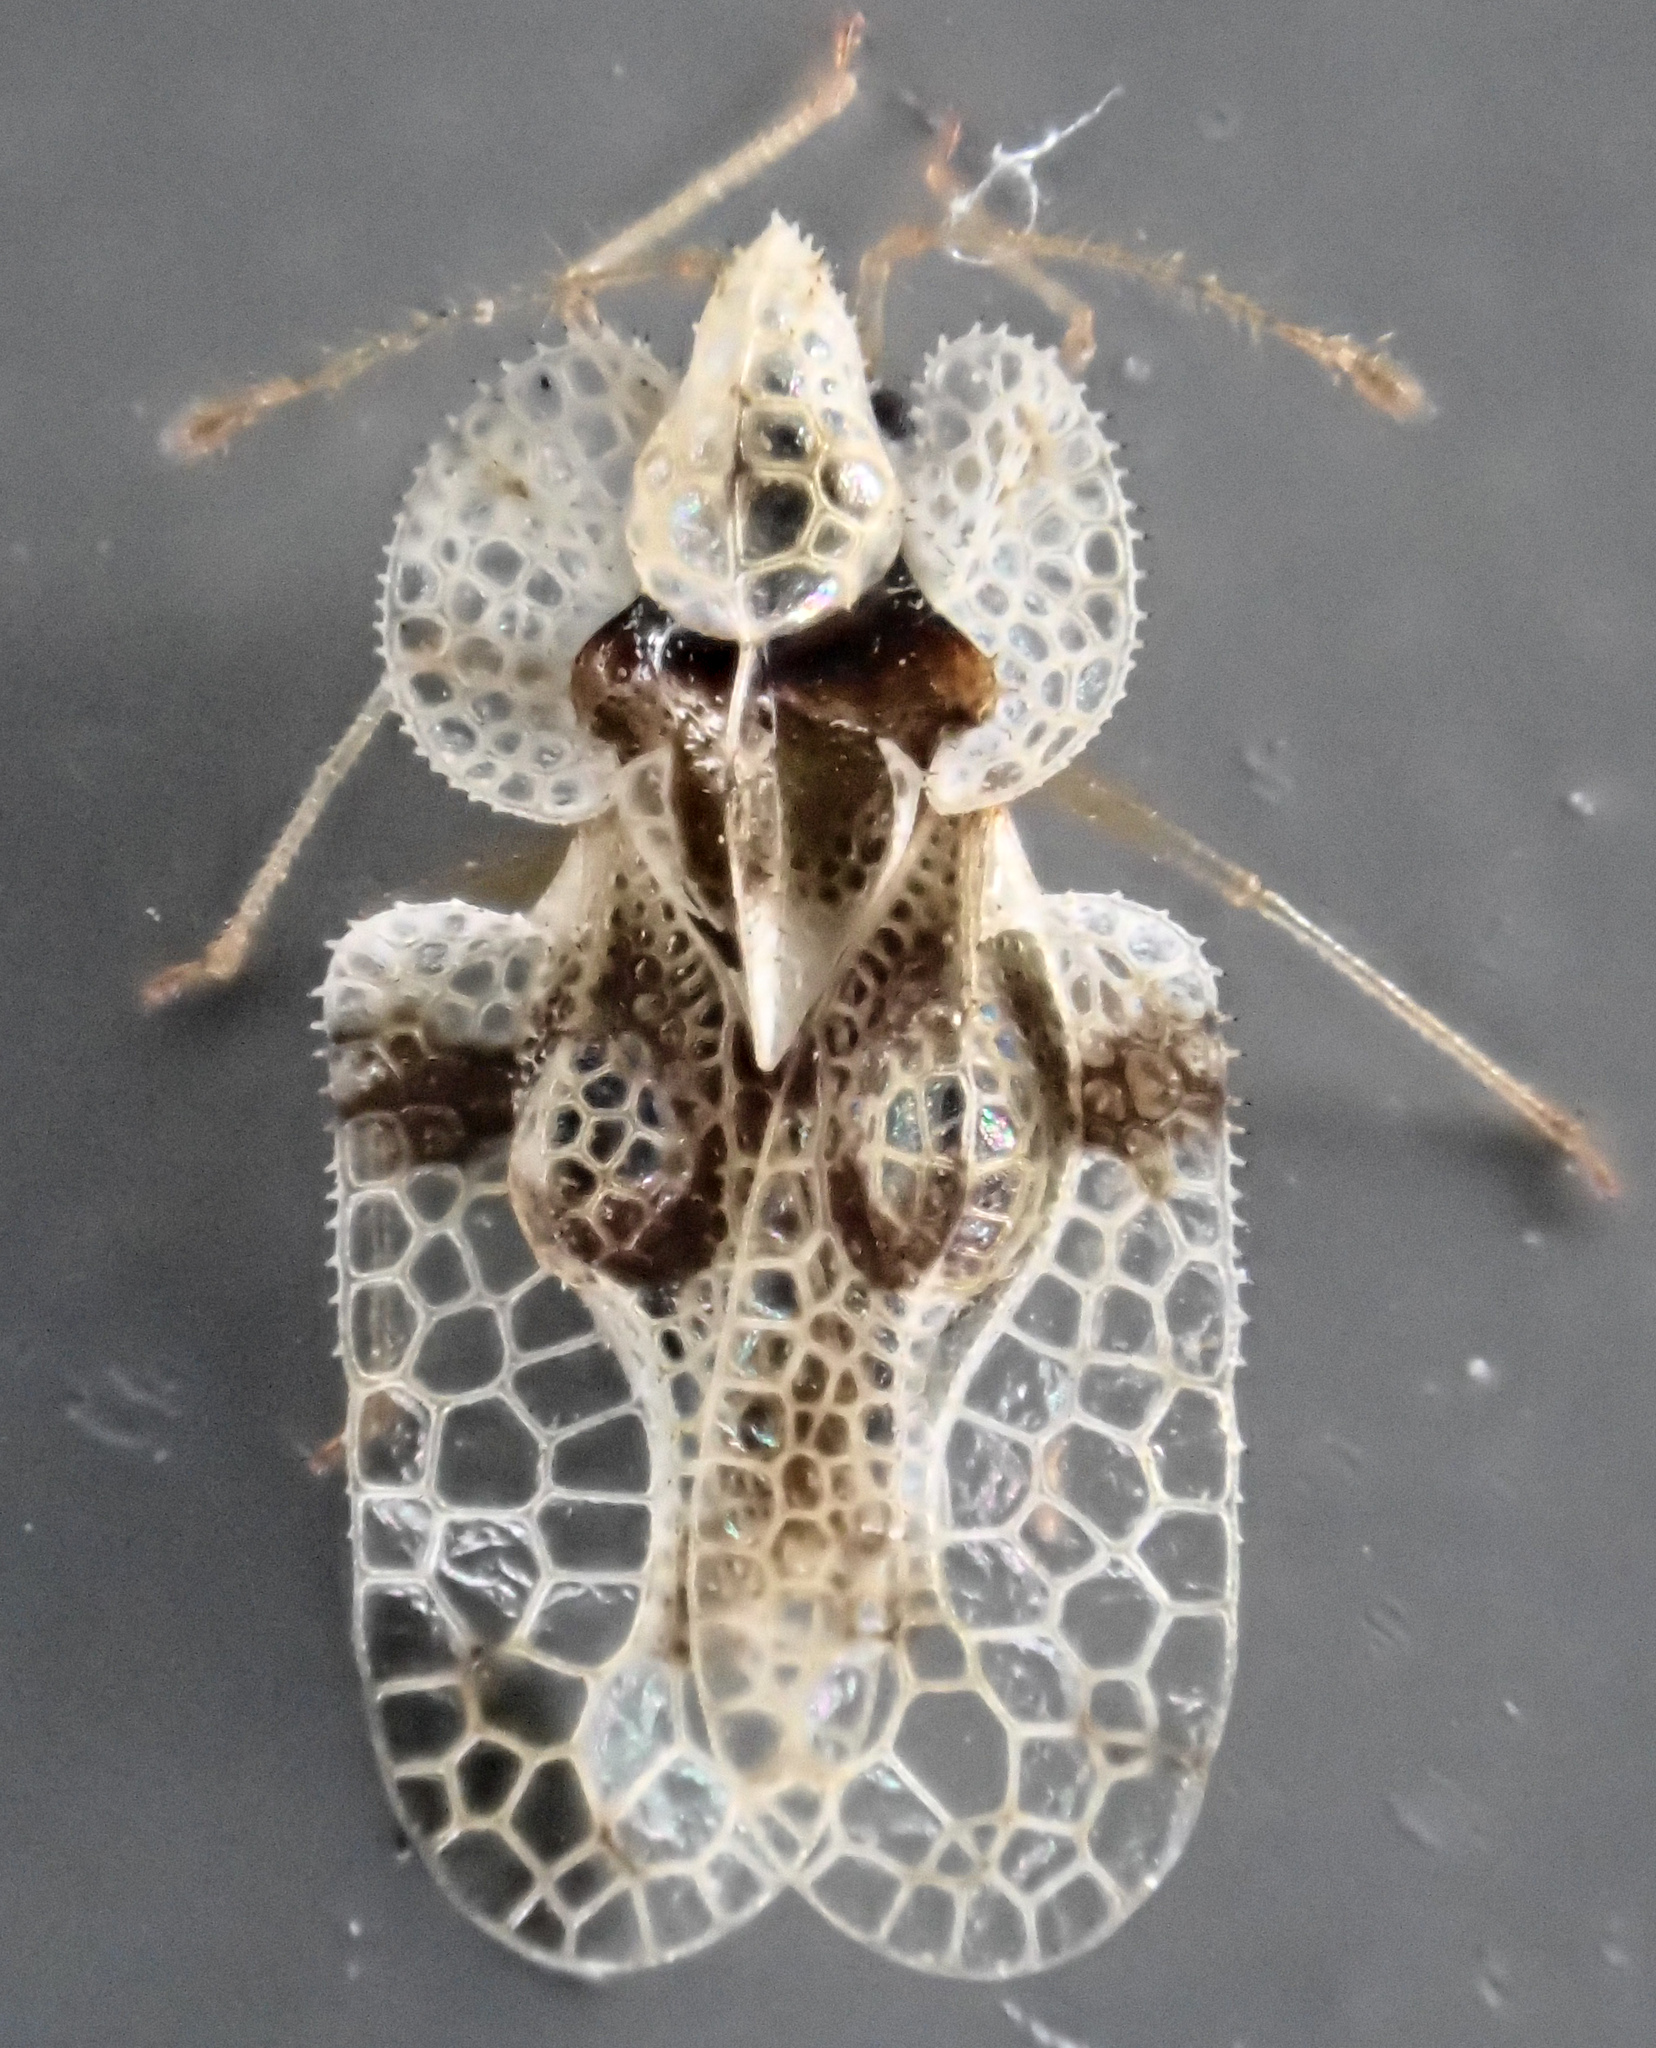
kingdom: Animalia
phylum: Arthropoda
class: Insecta
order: Hemiptera
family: Tingidae
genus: Corythucha
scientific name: Corythucha arcuata
